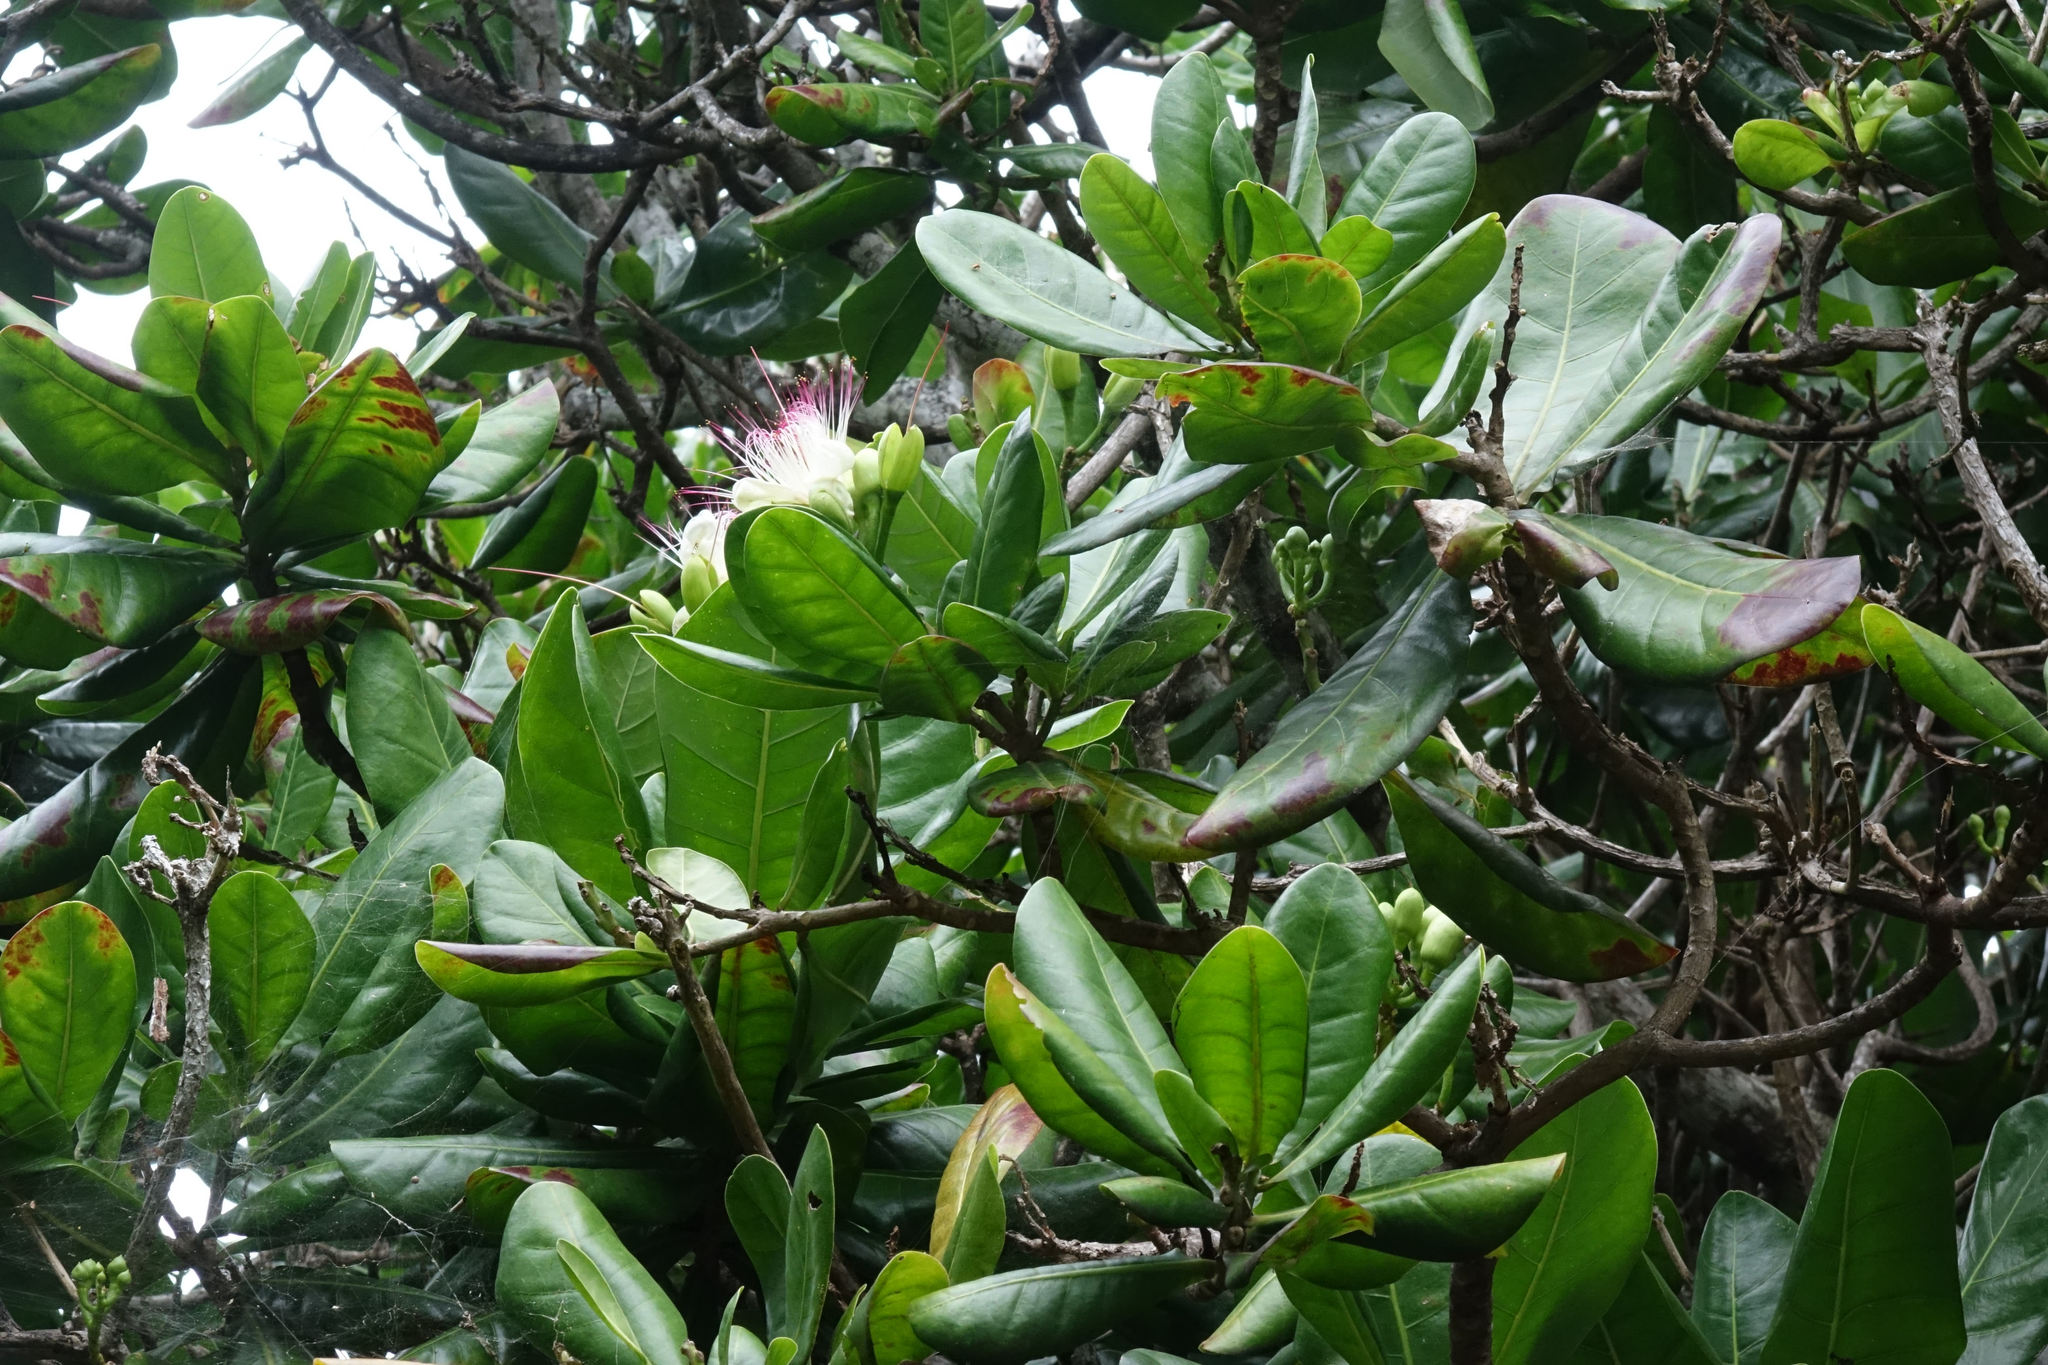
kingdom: Plantae
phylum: Tracheophyta
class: Magnoliopsida
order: Ericales
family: Lecythidaceae
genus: Barringtonia
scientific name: Barringtonia asiatica
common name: Mango-pine
